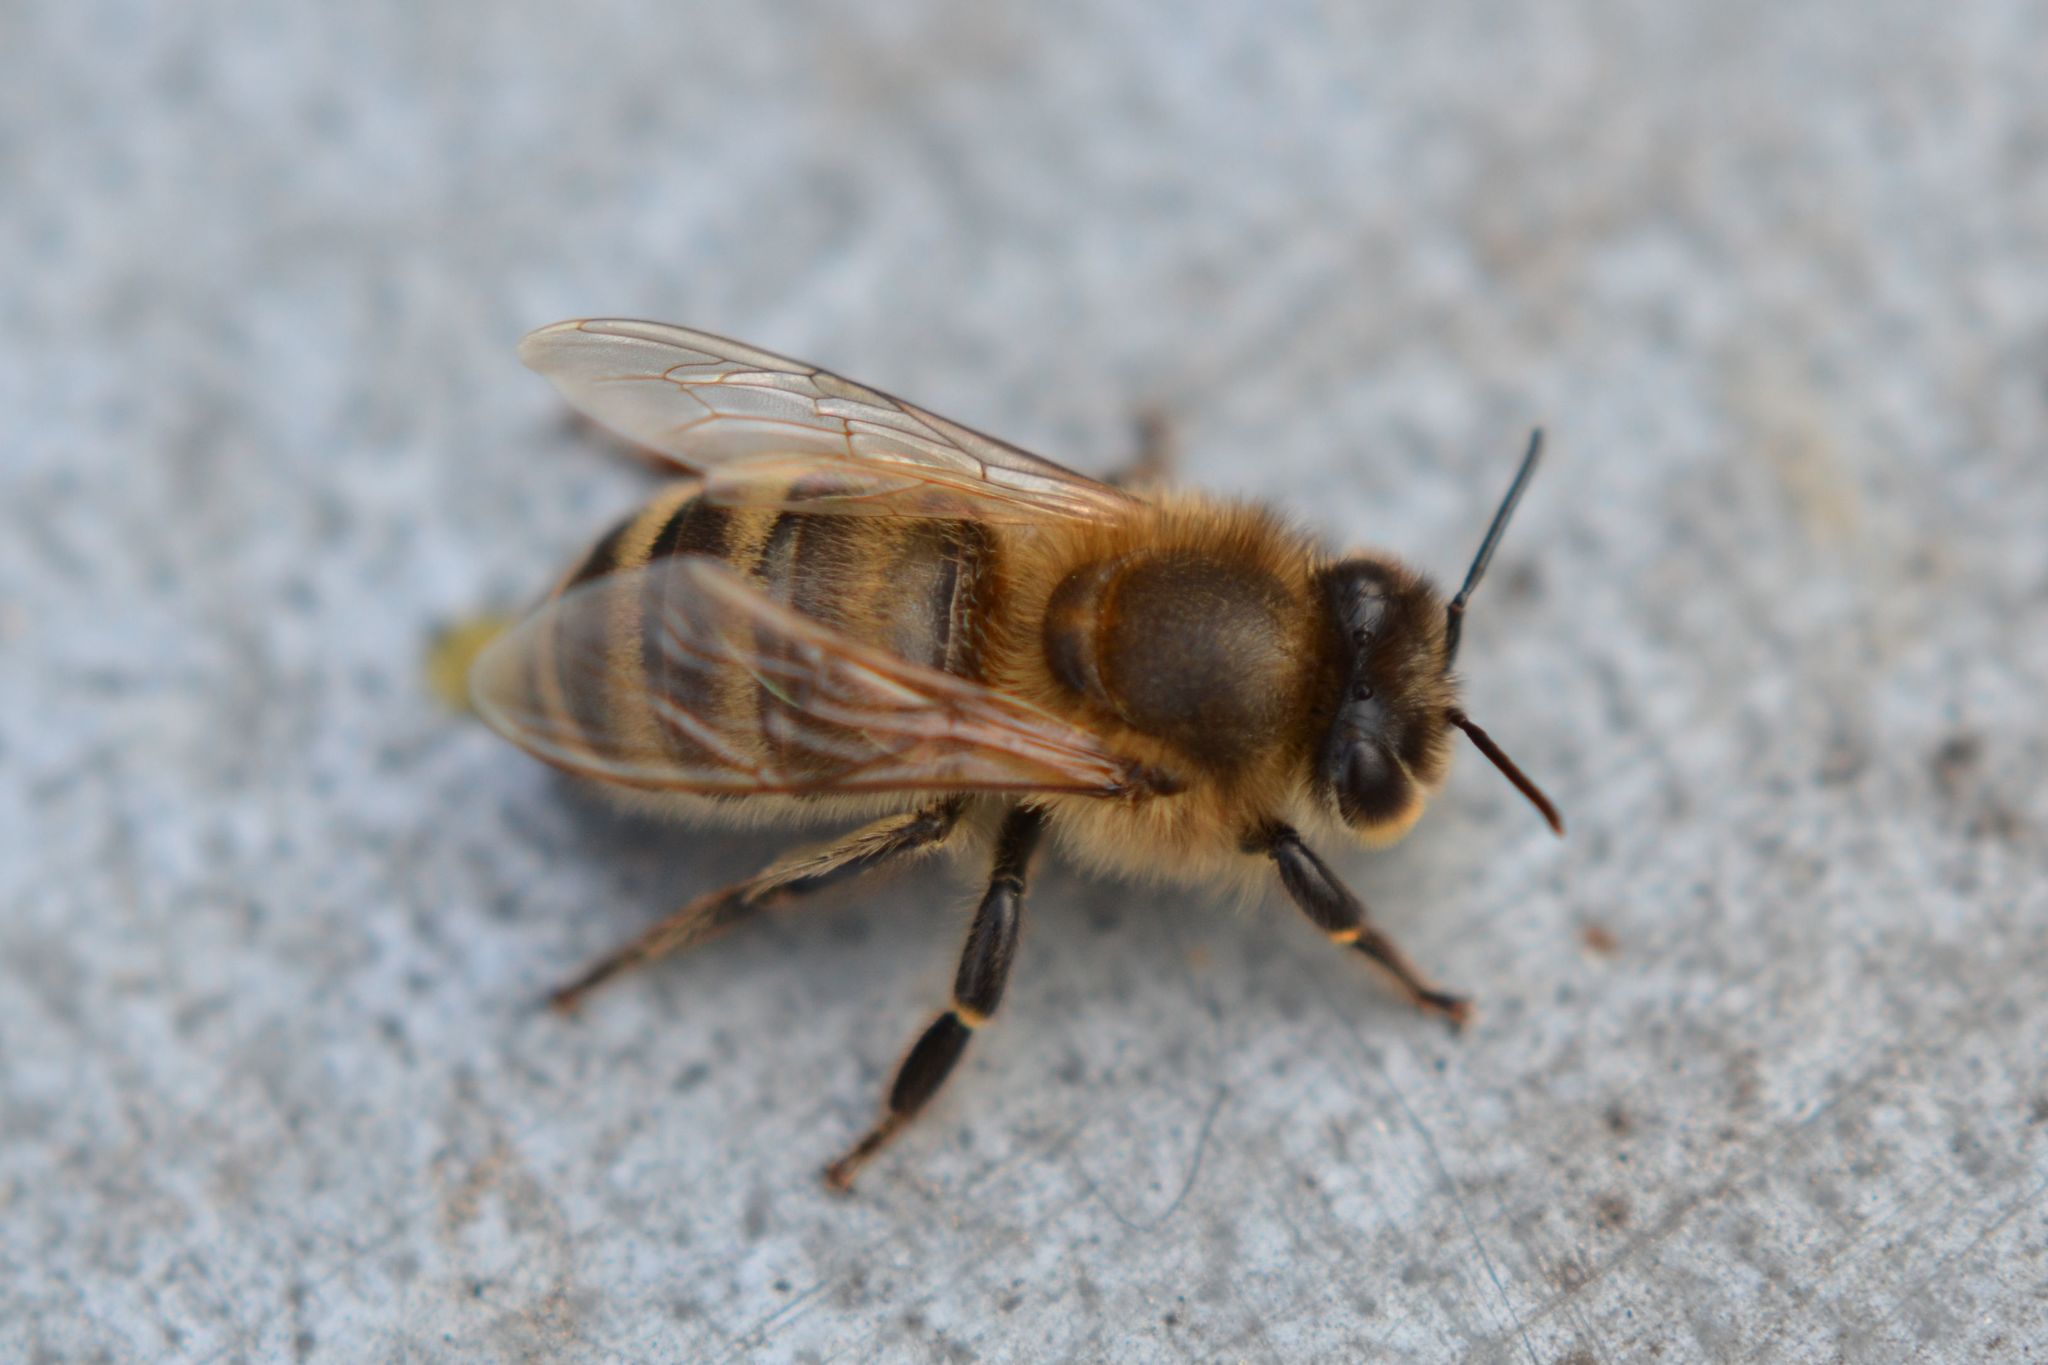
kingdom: Animalia
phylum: Arthropoda
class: Insecta
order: Hymenoptera
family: Apidae
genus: Apis
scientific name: Apis mellifera
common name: Honey bee
